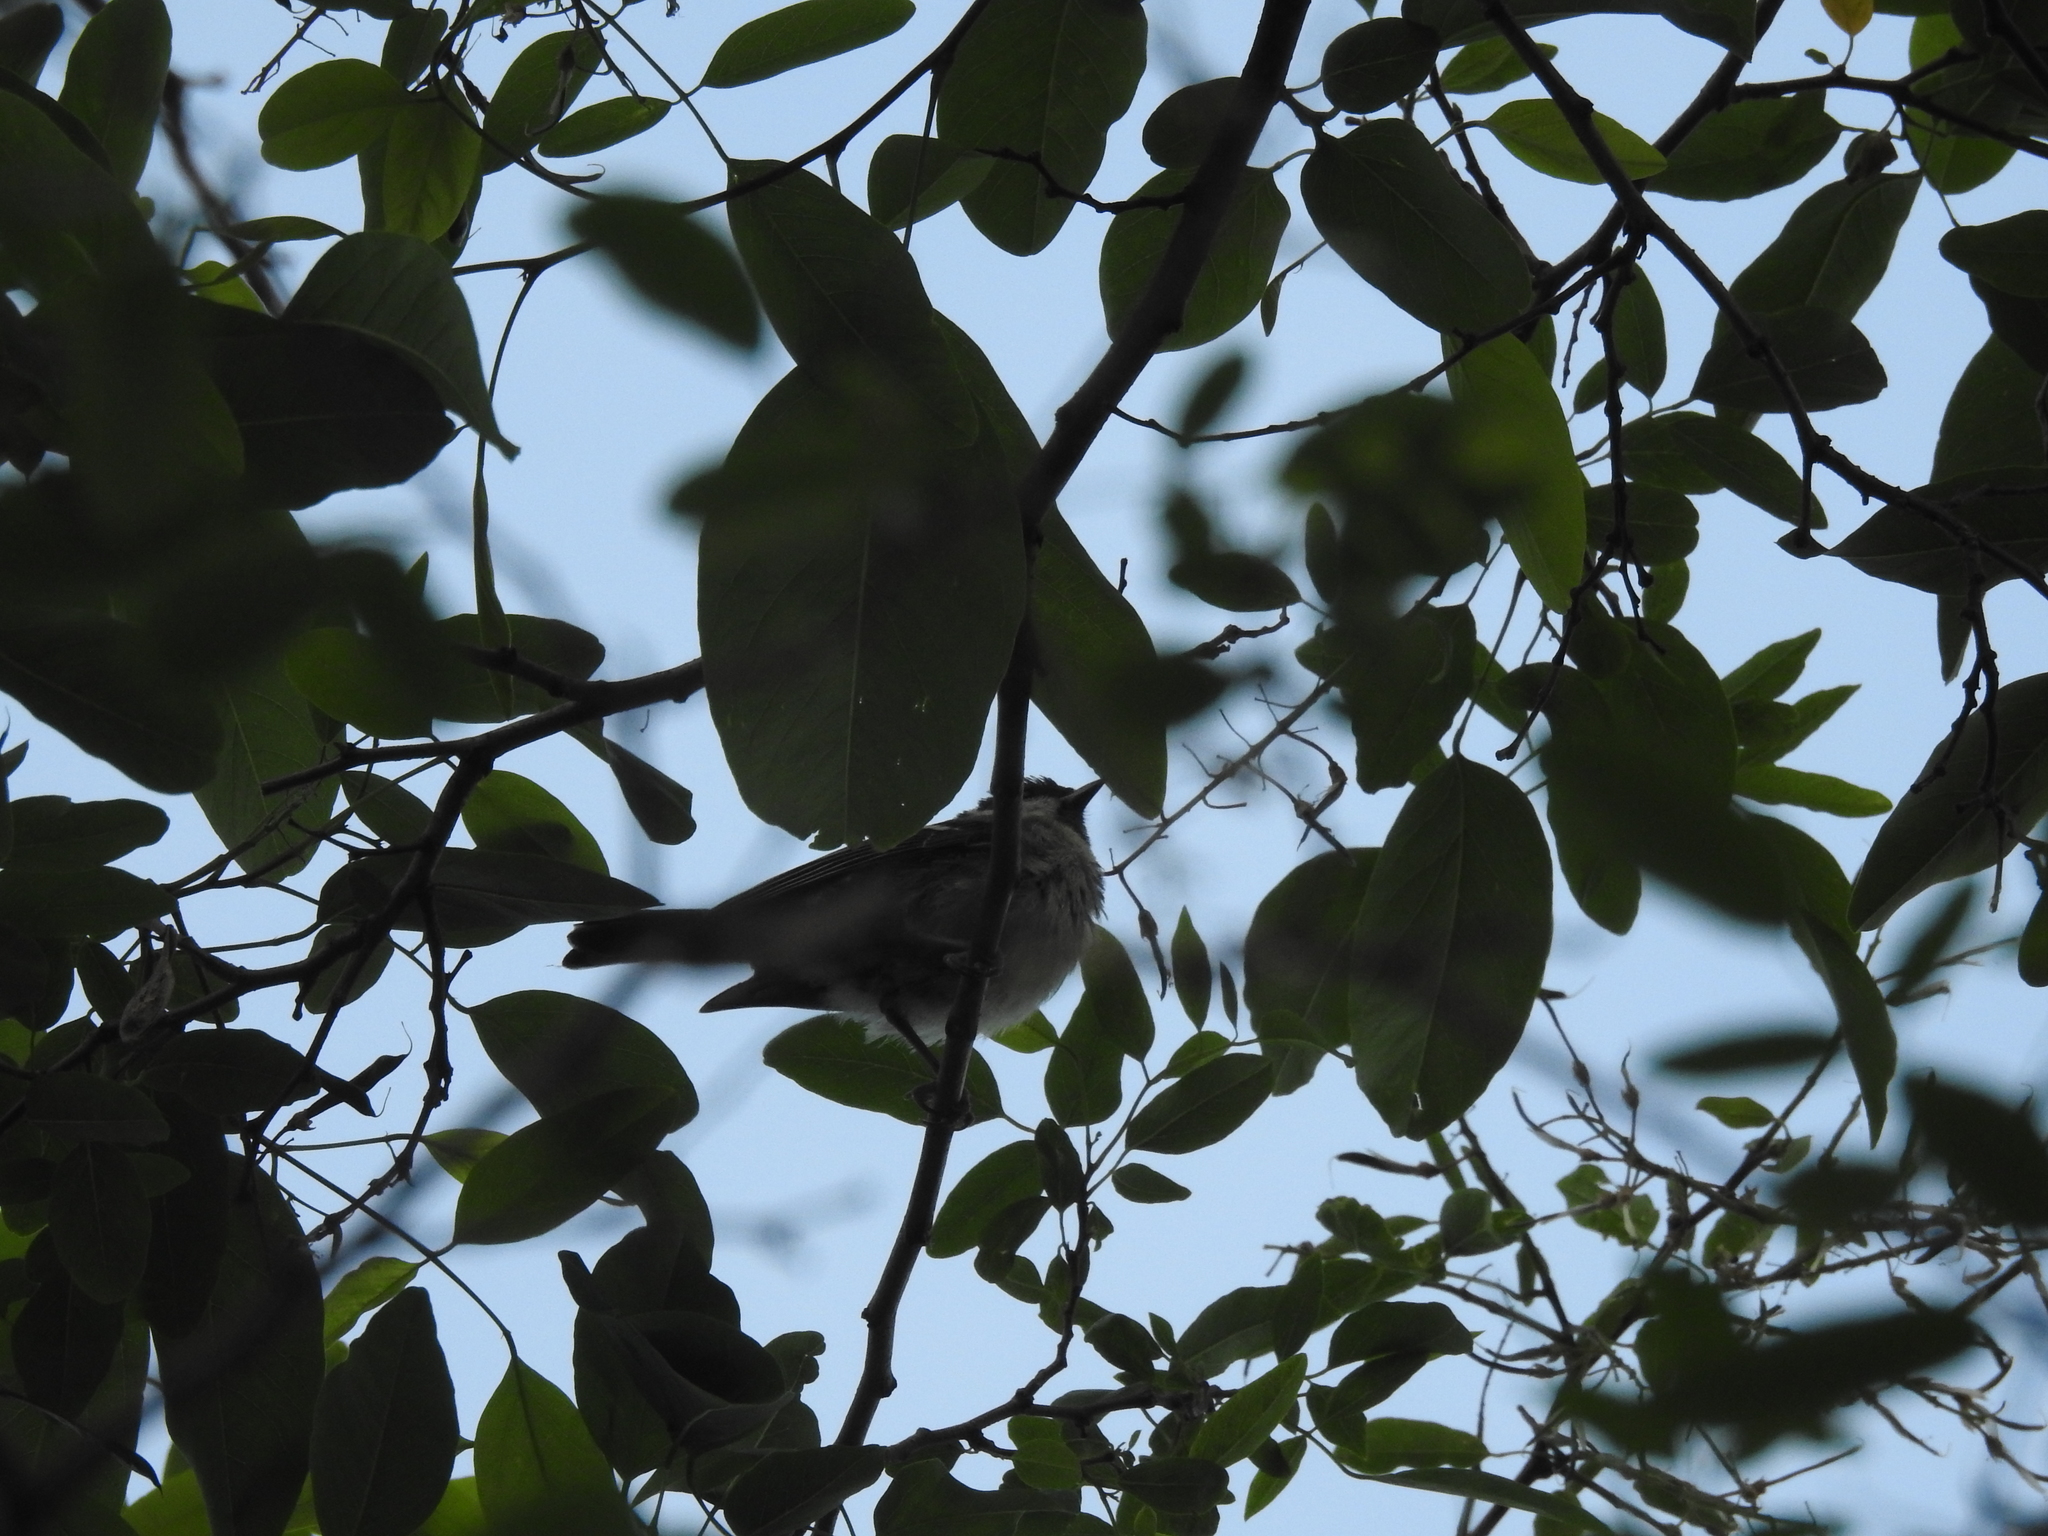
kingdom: Animalia
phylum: Chordata
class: Aves
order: Passeriformes
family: Paridae
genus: Periparus
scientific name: Periparus ater
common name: Coal tit
